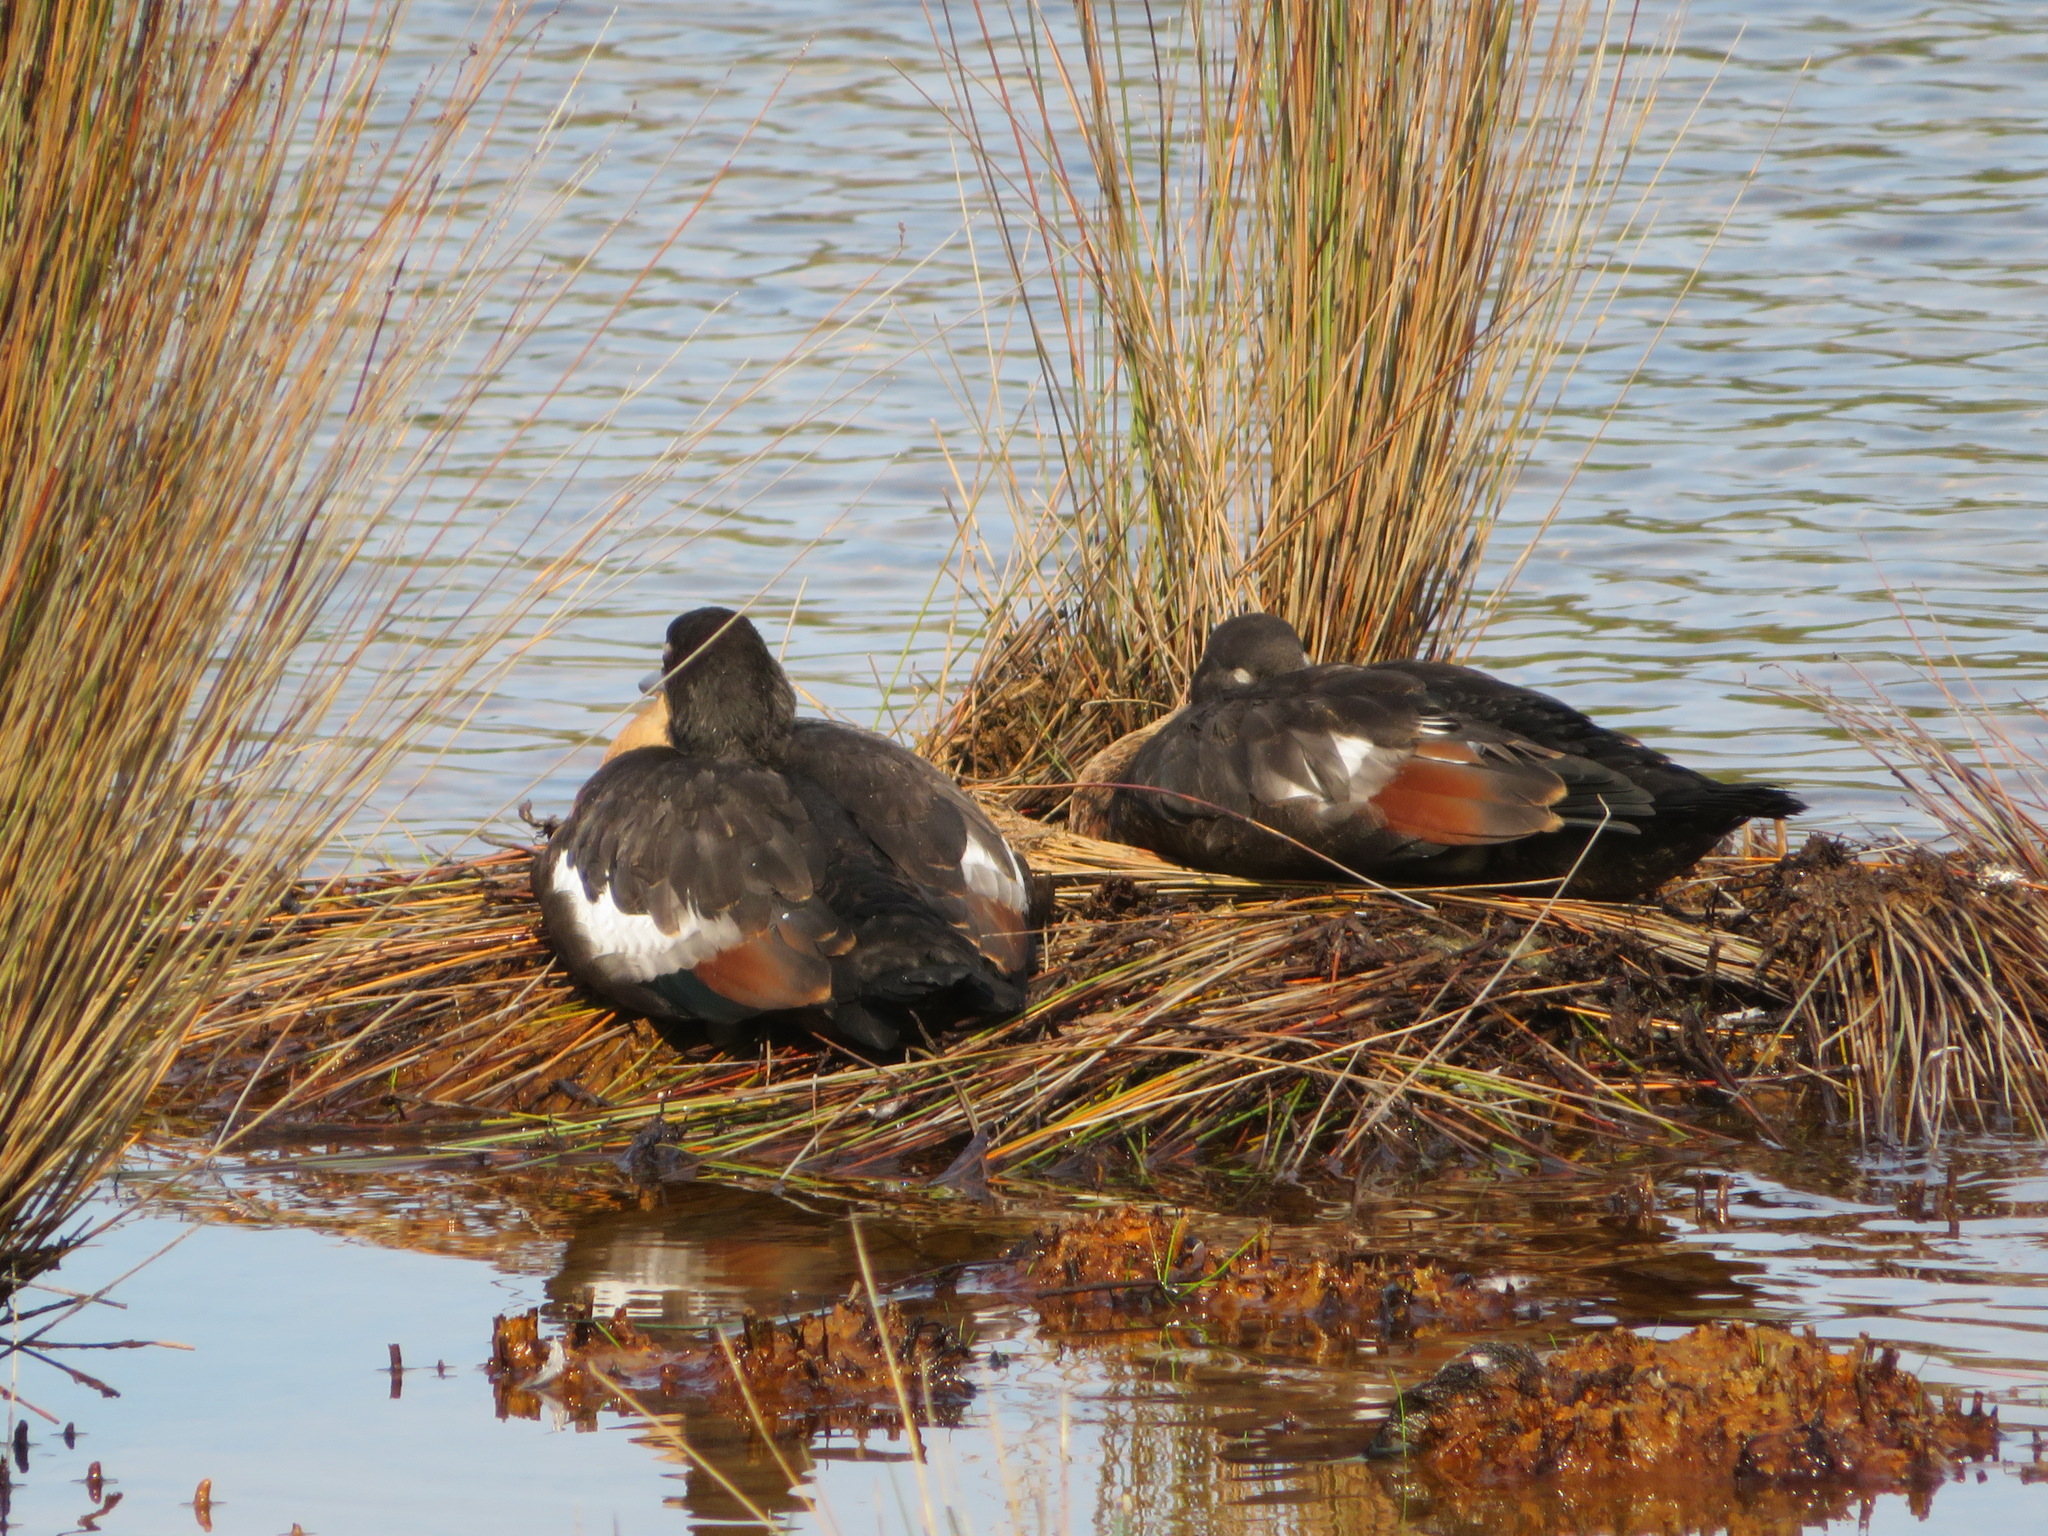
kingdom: Animalia
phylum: Chordata
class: Aves
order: Anseriformes
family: Anatidae
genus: Tadorna
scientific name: Tadorna tadornoides
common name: Australian shelduck
